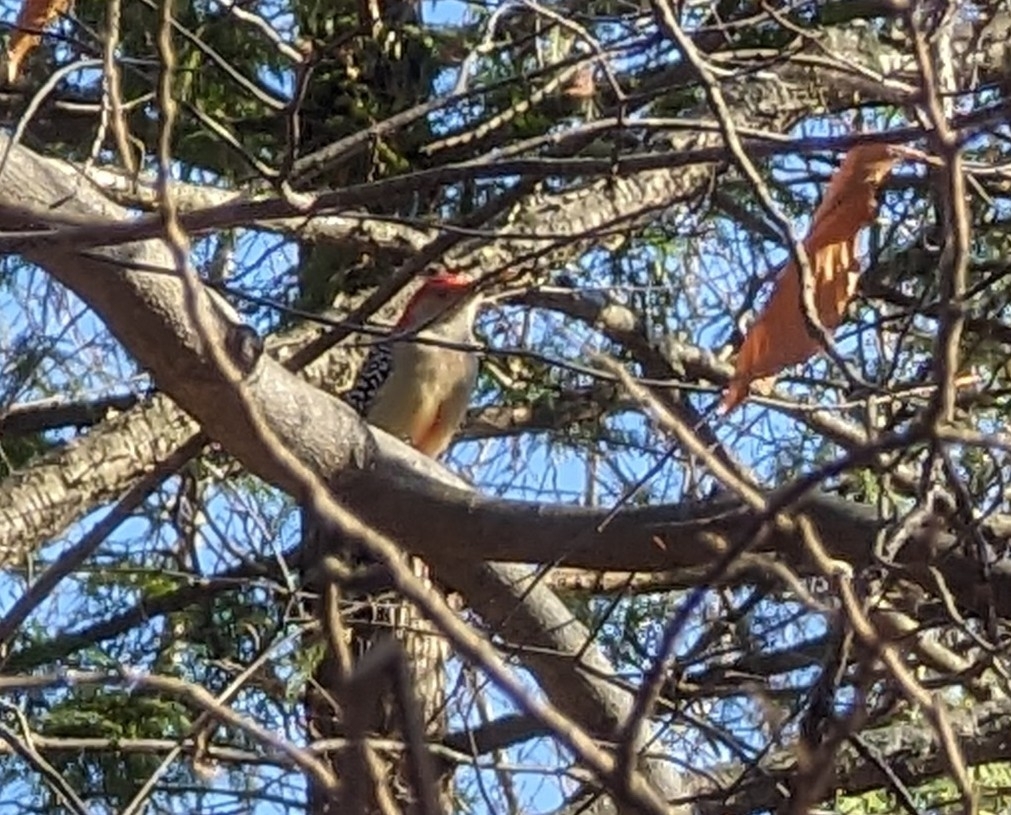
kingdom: Animalia
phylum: Chordata
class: Aves
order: Piciformes
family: Picidae
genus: Melanerpes
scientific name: Melanerpes carolinus
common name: Red-bellied woodpecker
